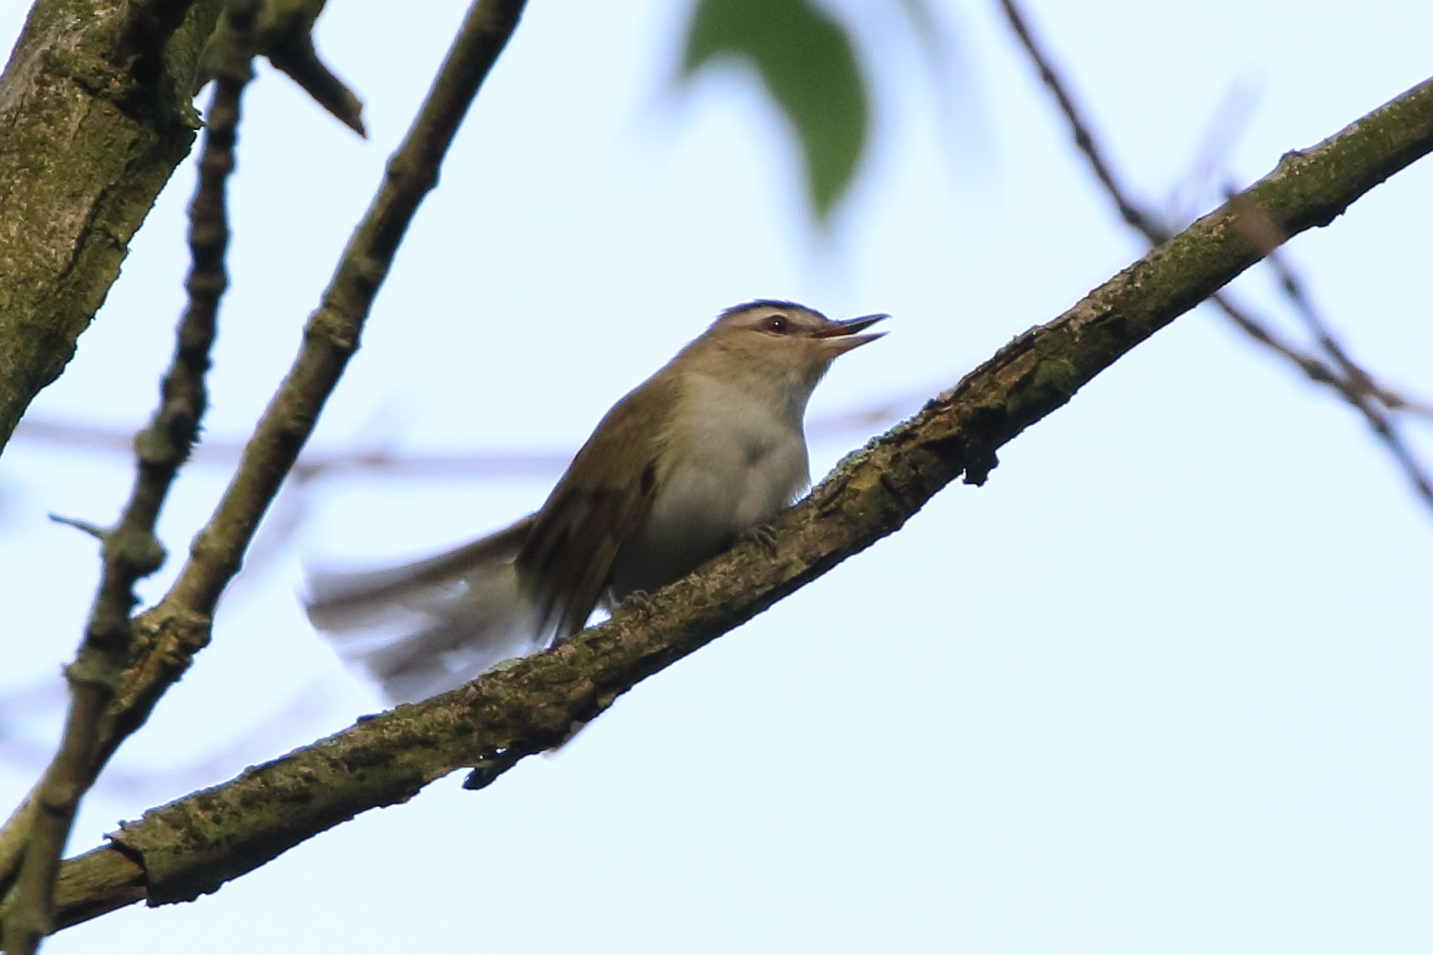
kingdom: Animalia
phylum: Chordata
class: Aves
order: Passeriformes
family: Vireonidae
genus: Vireo
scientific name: Vireo olivaceus
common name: Red-eyed vireo
